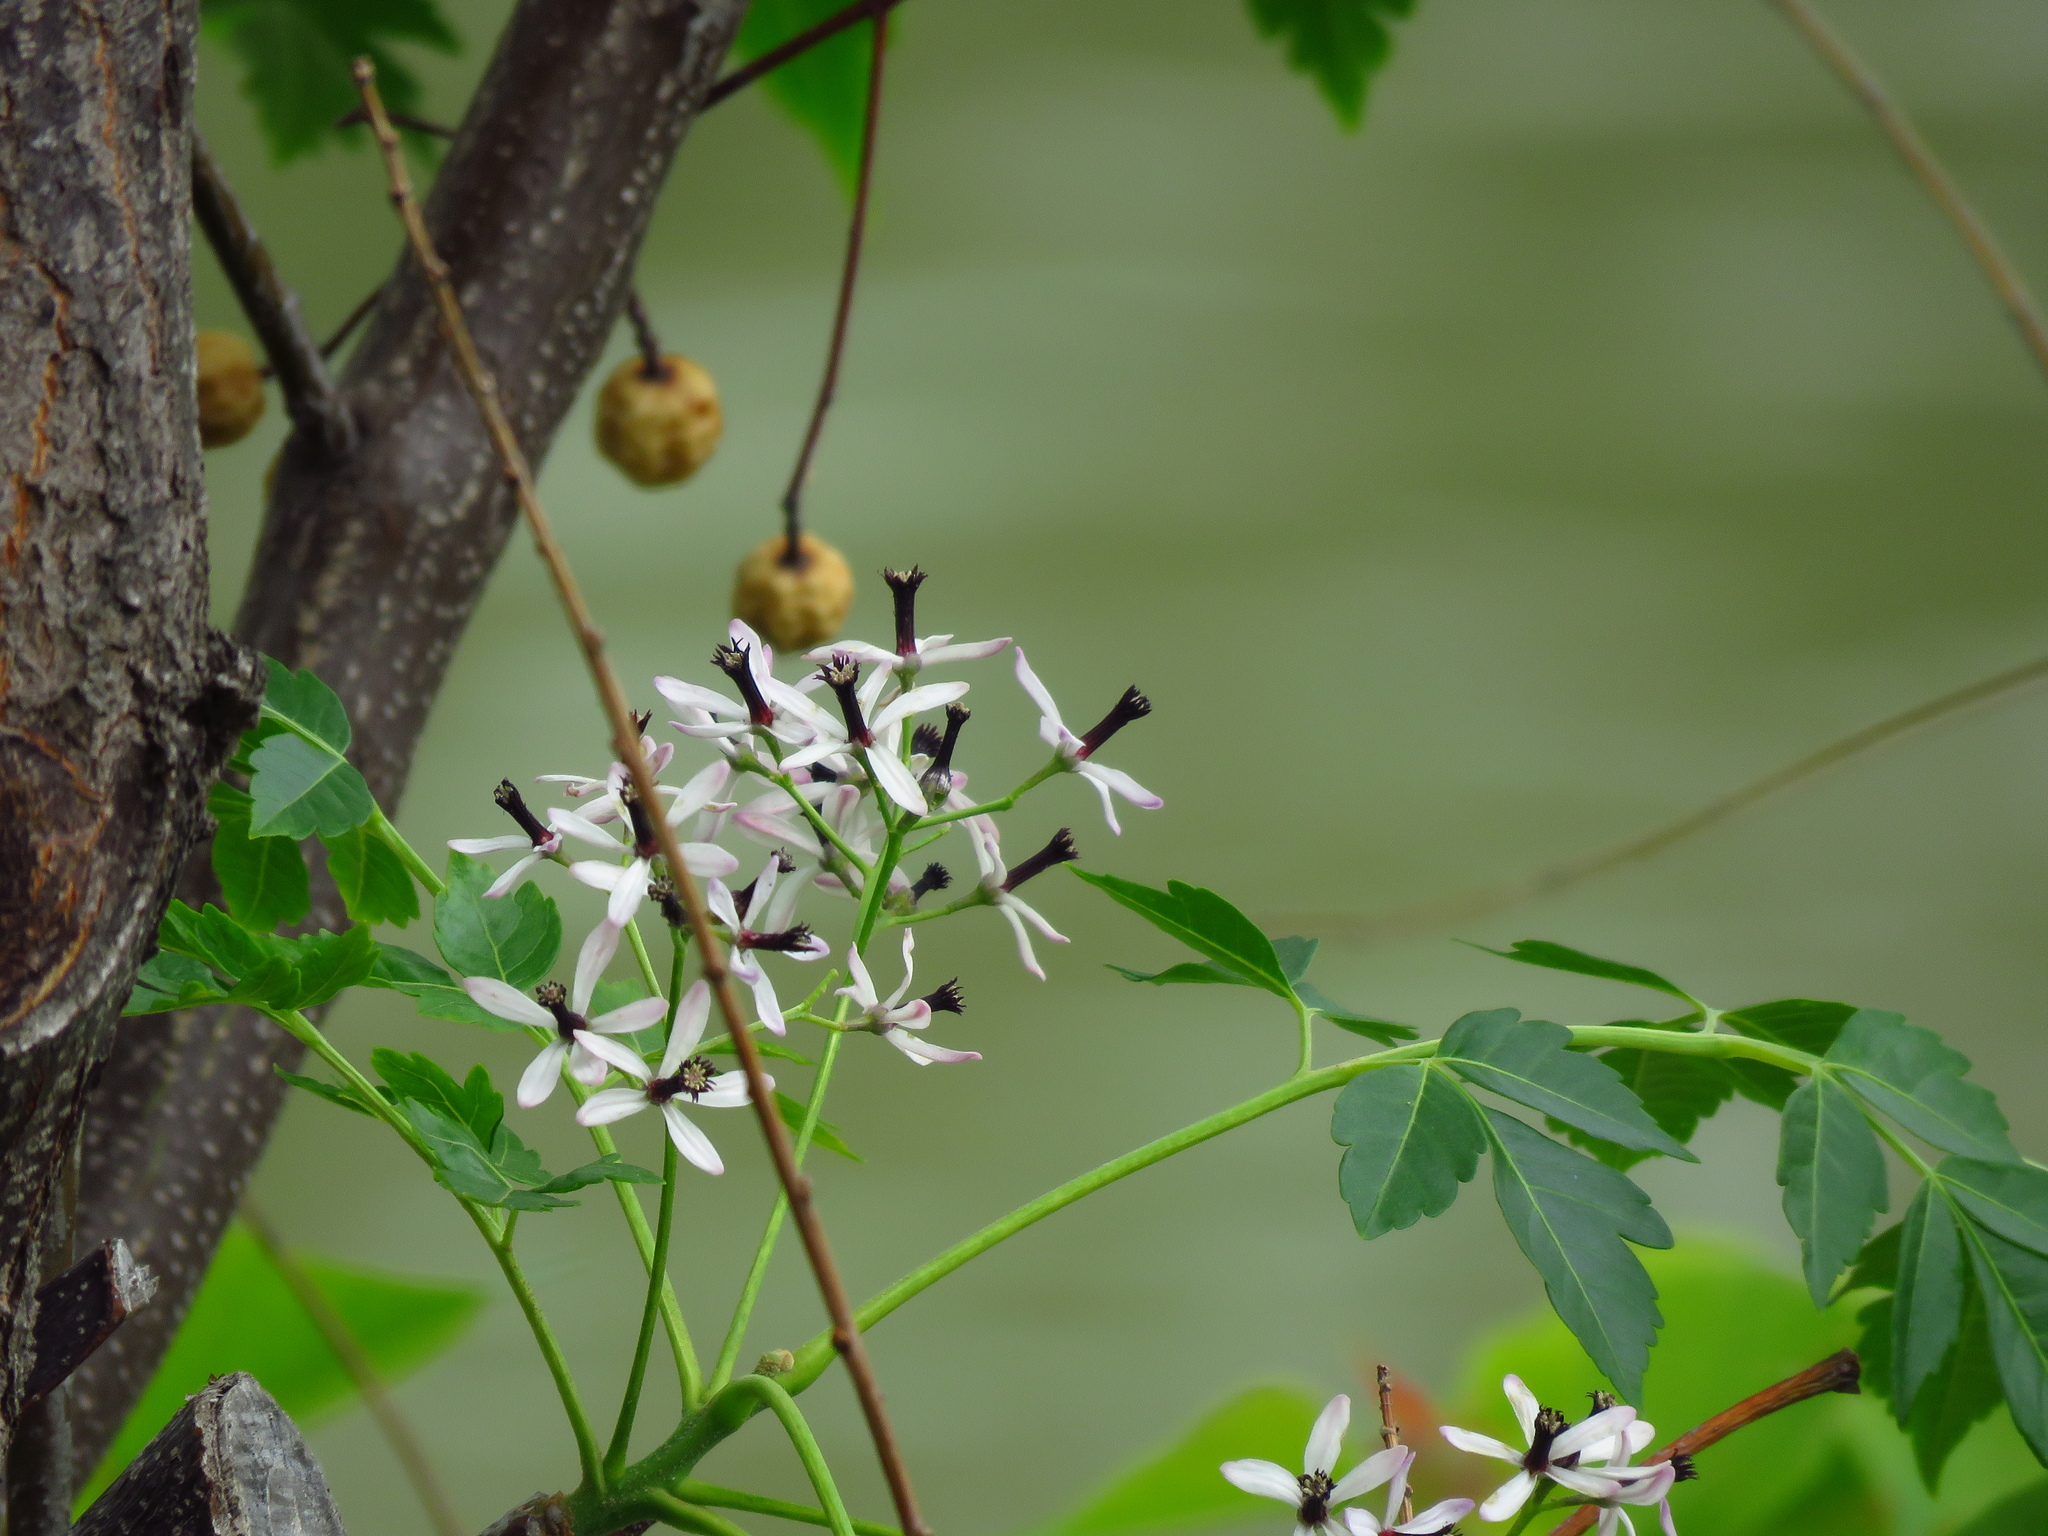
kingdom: Plantae
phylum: Tracheophyta
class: Magnoliopsida
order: Sapindales
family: Meliaceae
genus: Melia
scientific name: Melia azedarach
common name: Chinaberrytree
